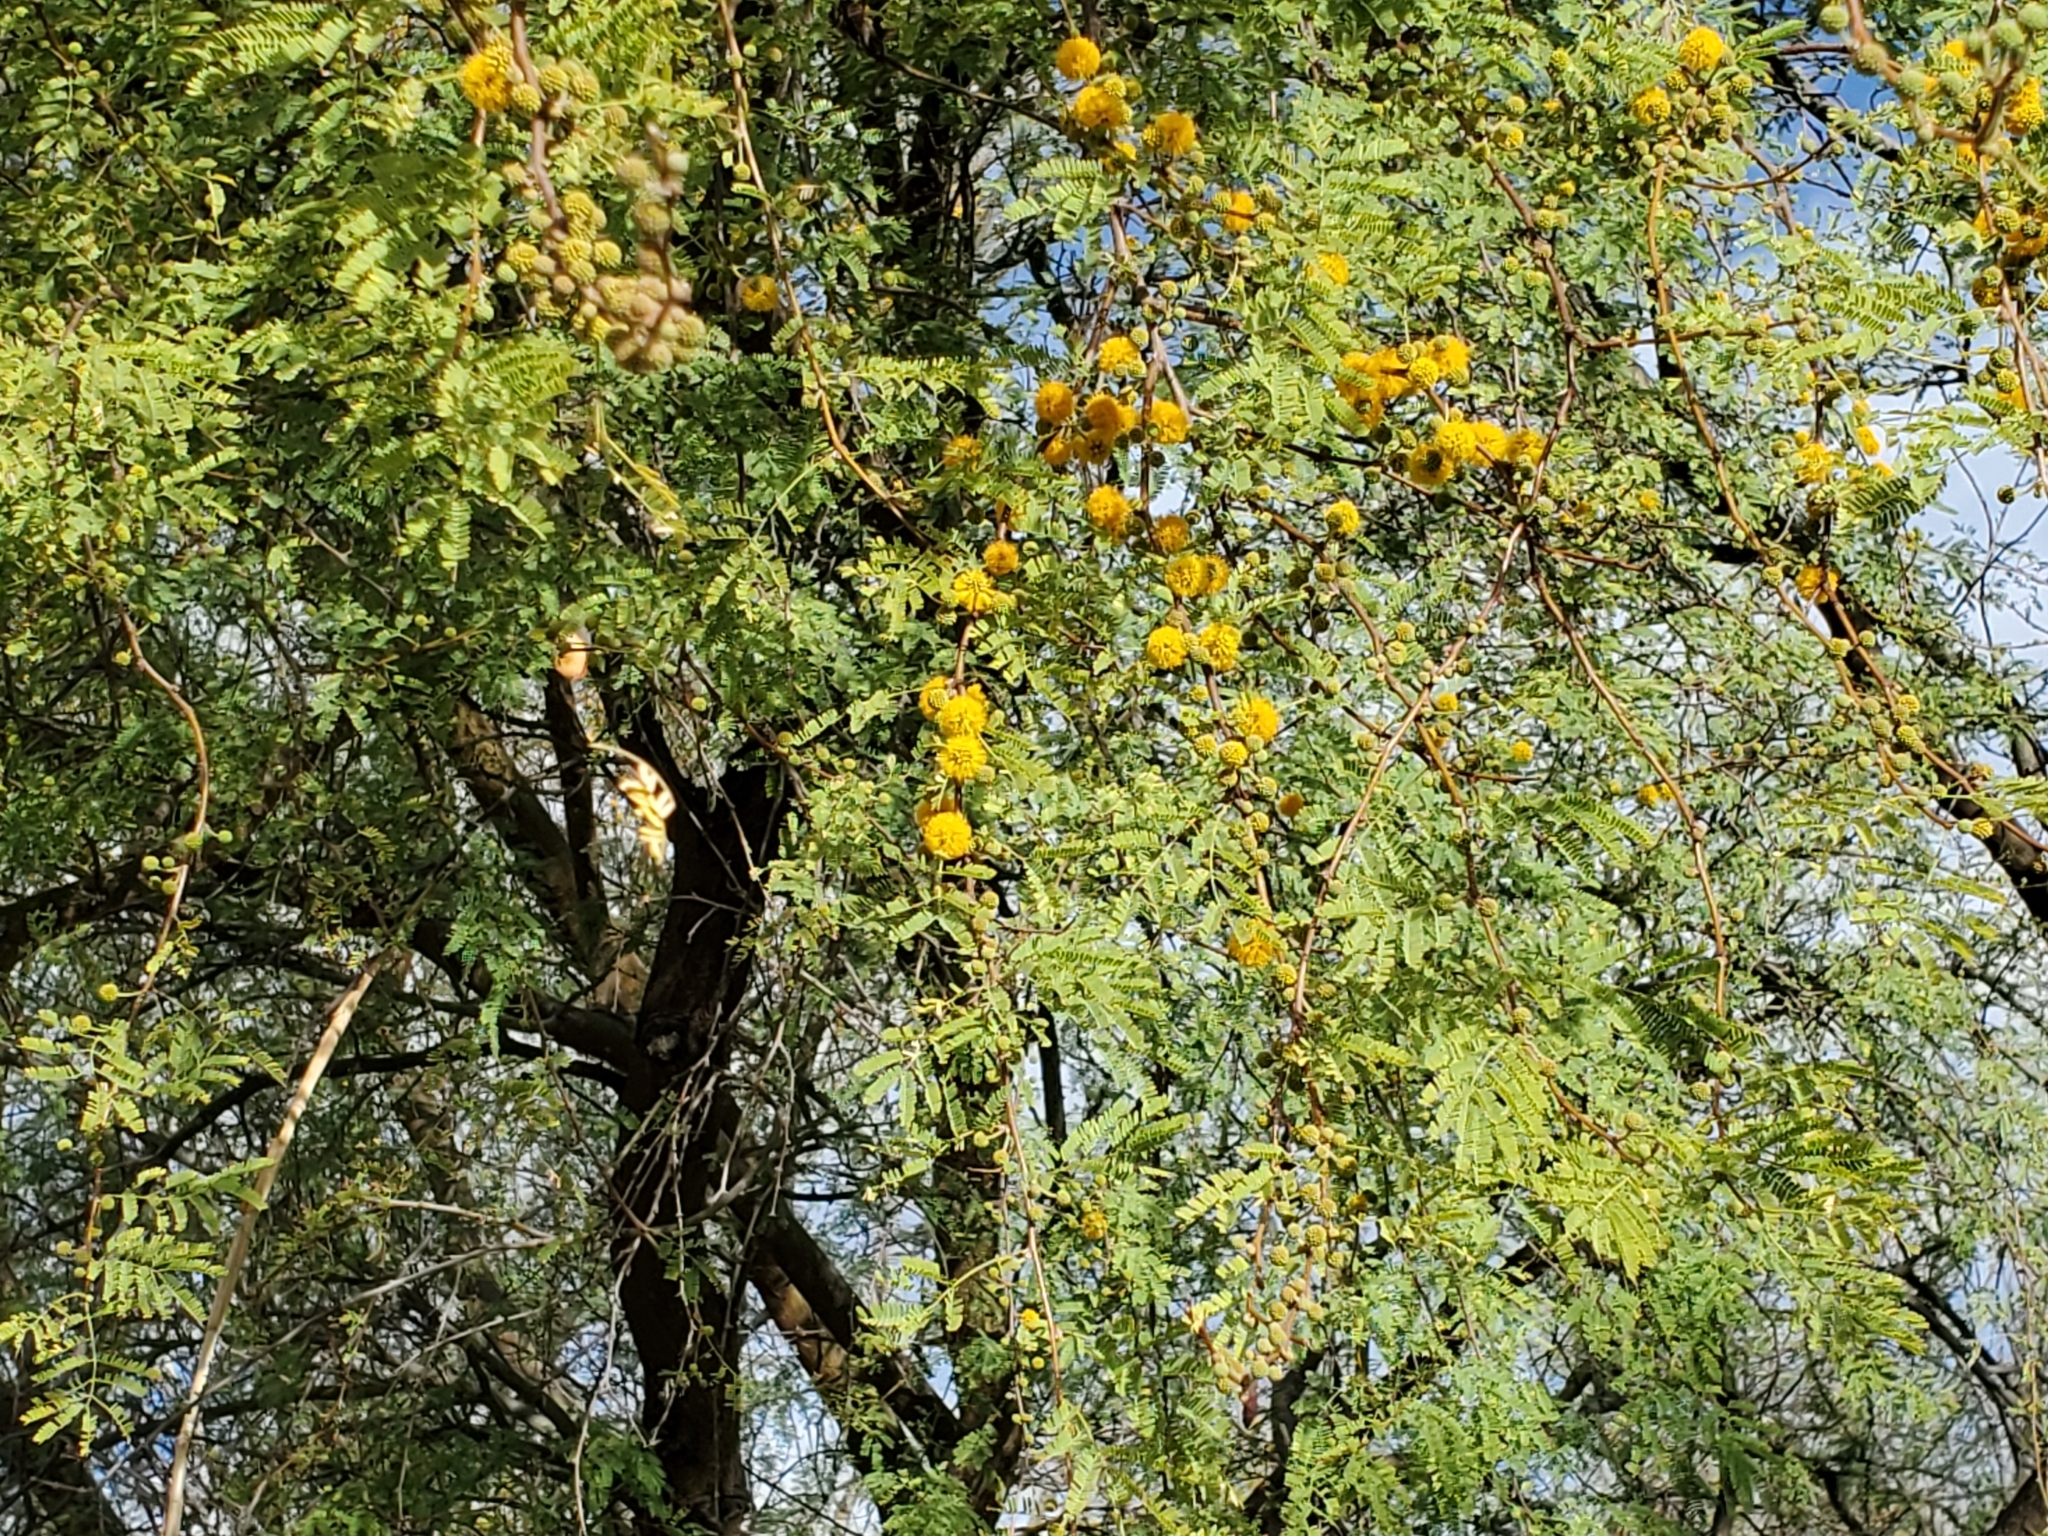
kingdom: Plantae
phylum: Tracheophyta
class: Magnoliopsida
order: Fabales
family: Fabaceae
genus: Vachellia
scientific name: Vachellia farnesiana
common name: Sweet acacia
